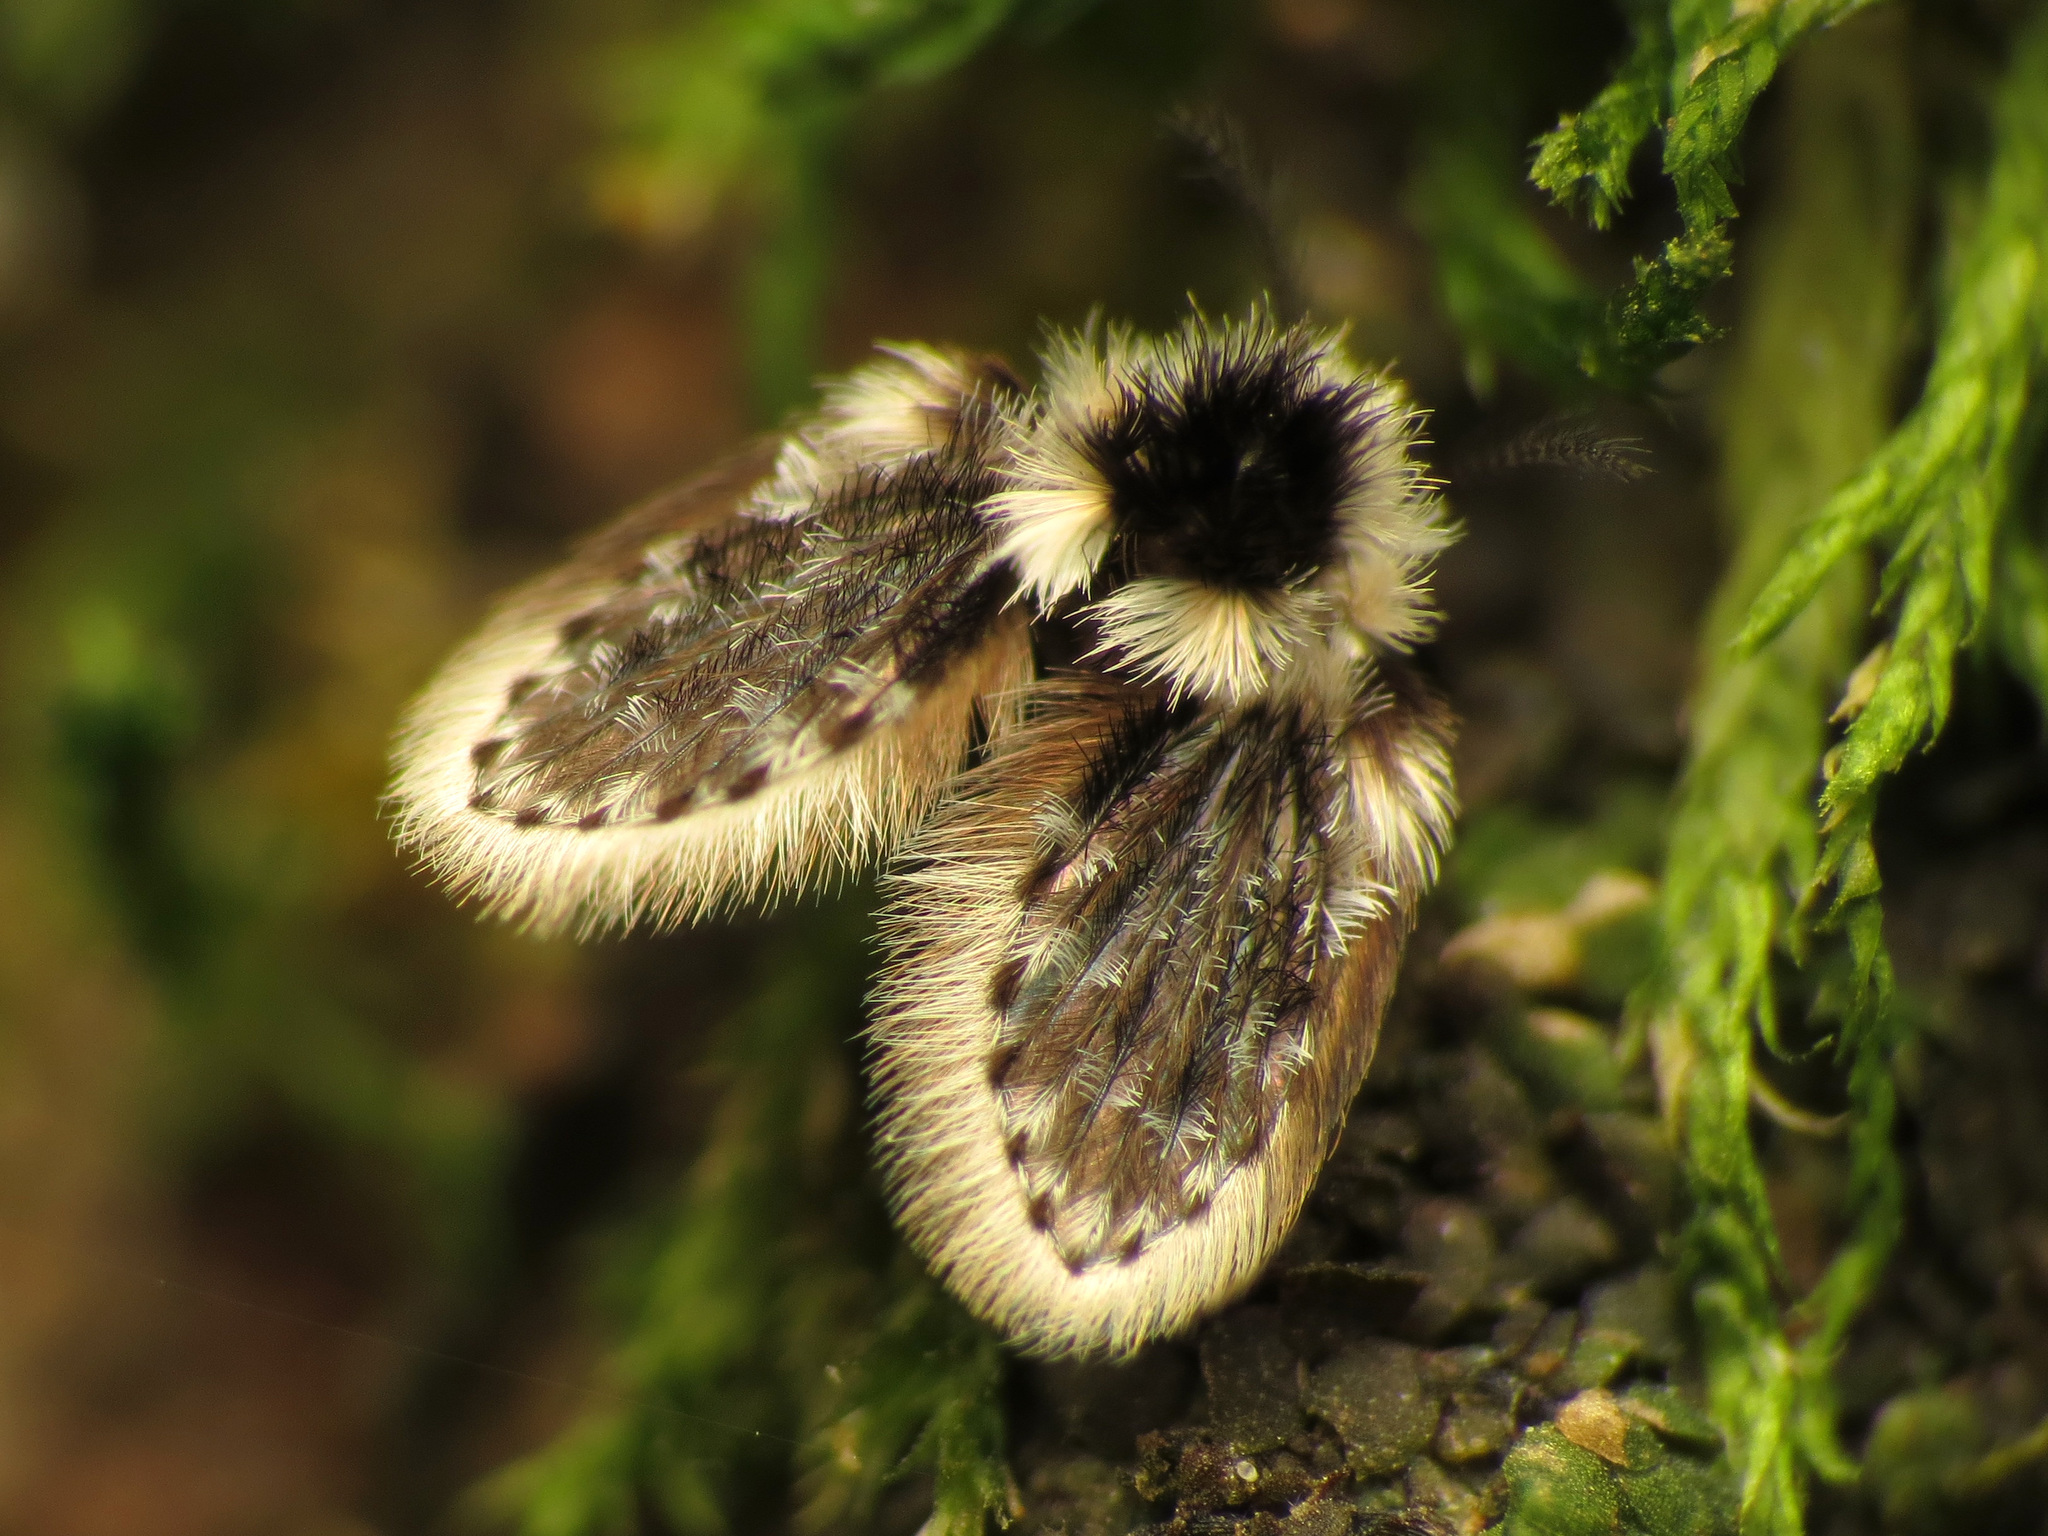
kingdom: Animalia
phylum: Arthropoda
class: Insecta
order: Diptera
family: Psychodidae
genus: Lepiseodina
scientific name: Lepiseodina
